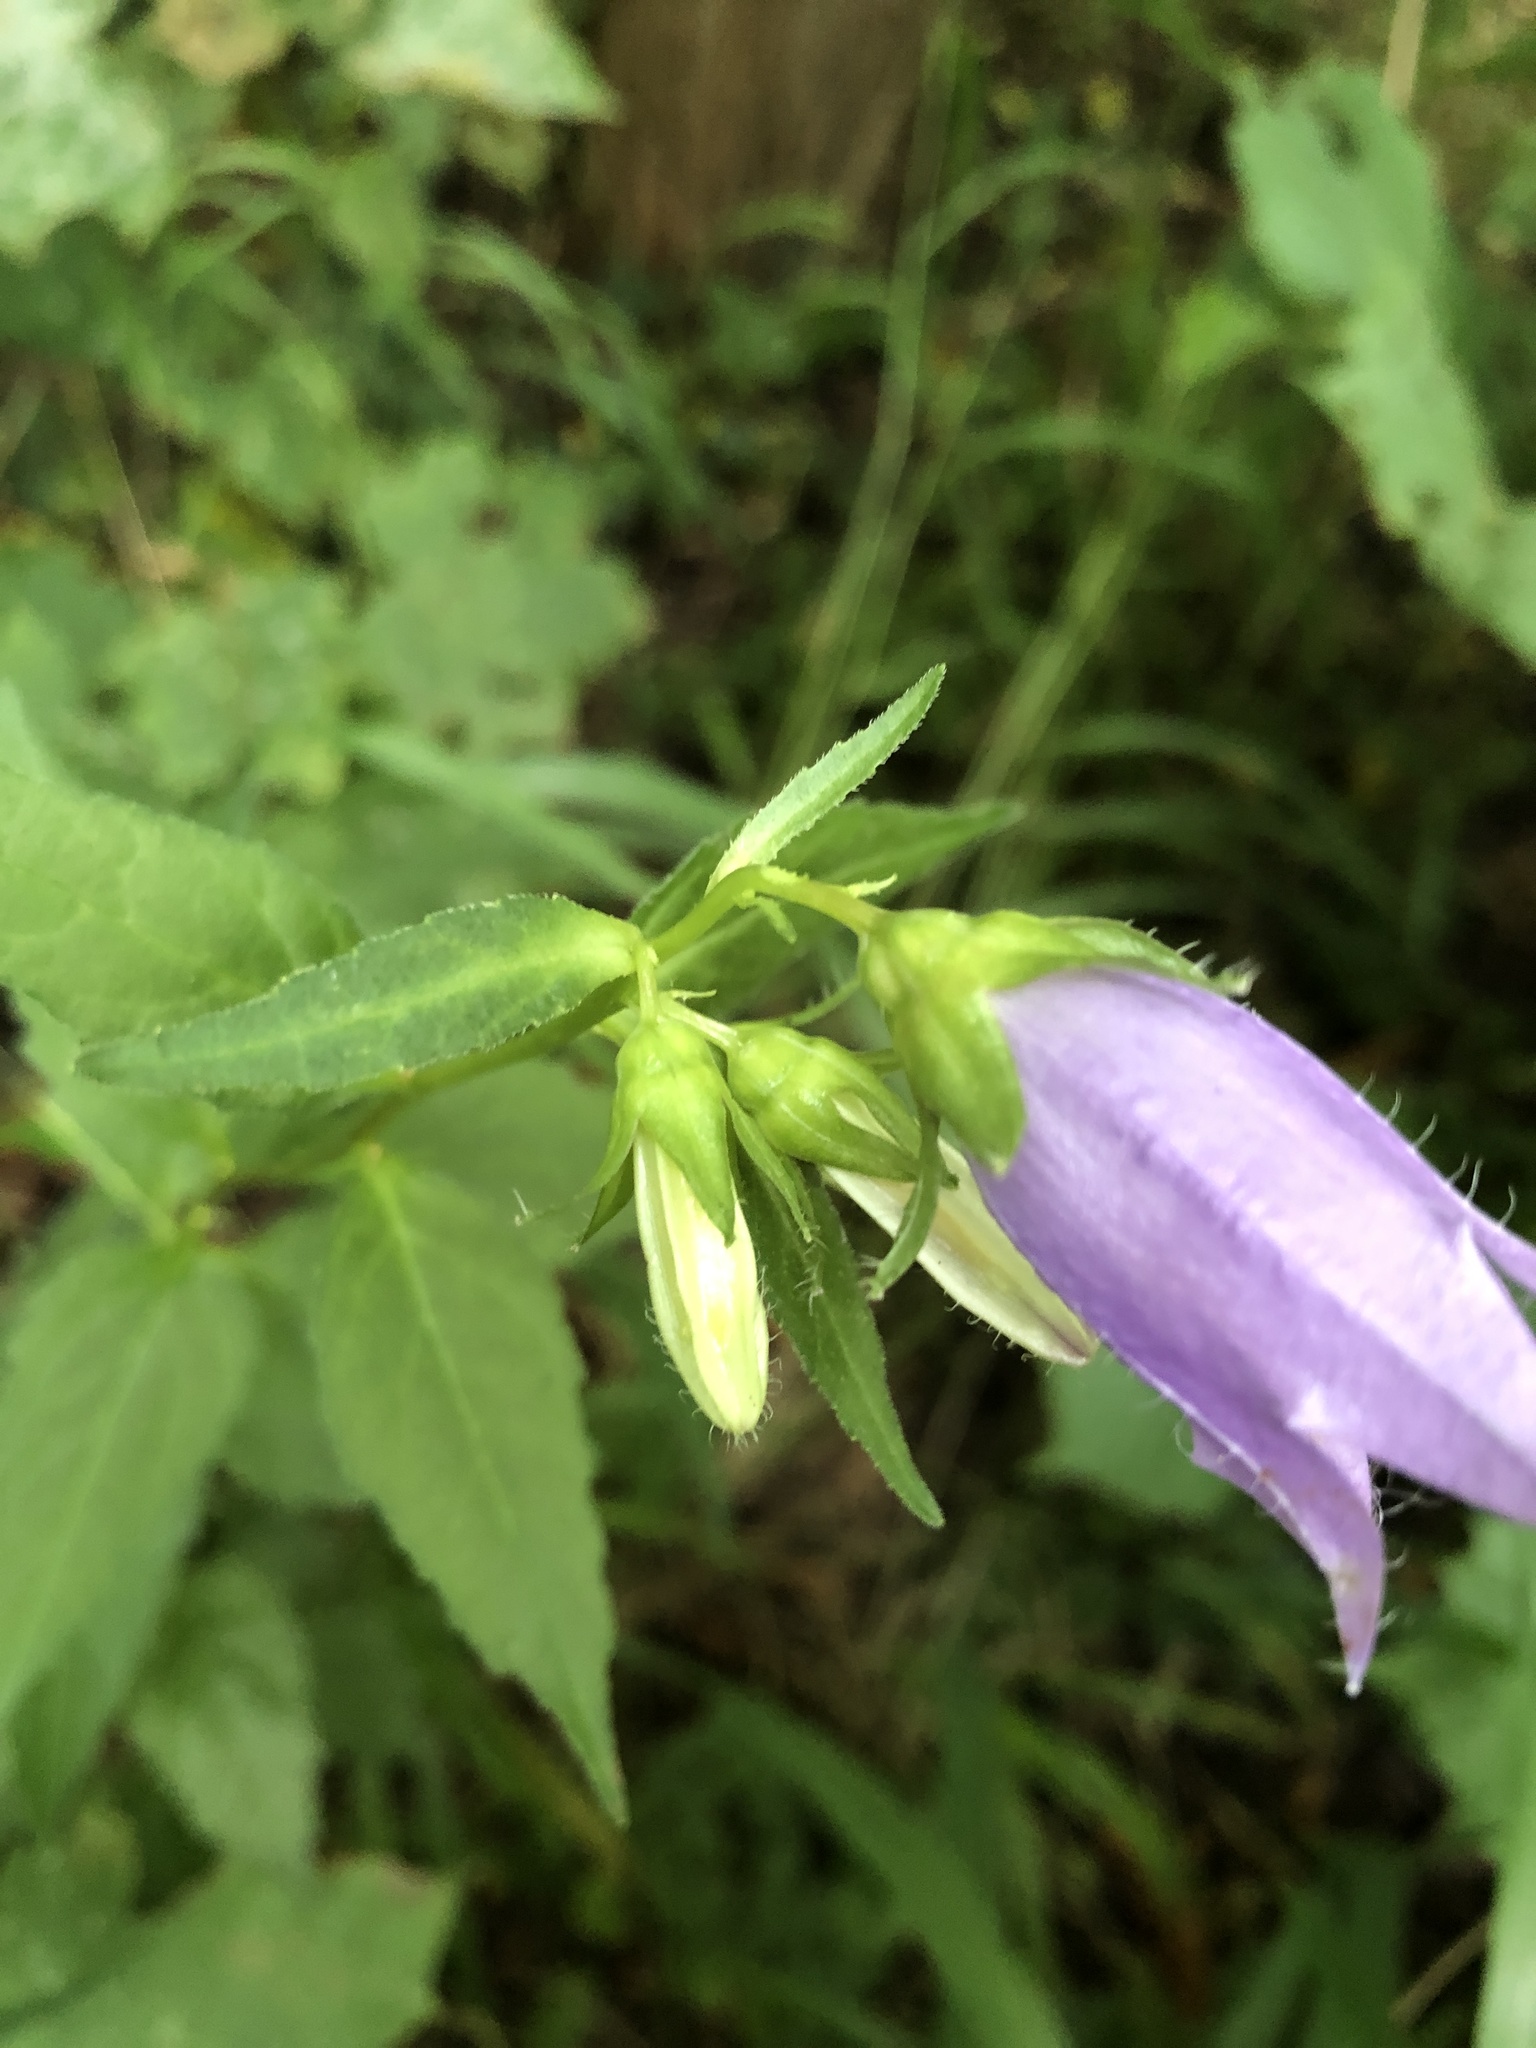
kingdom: Plantae
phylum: Tracheophyta
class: Magnoliopsida
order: Asterales
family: Campanulaceae
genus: Campanula
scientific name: Campanula trachelium
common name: Nettle-leaved bellflower
